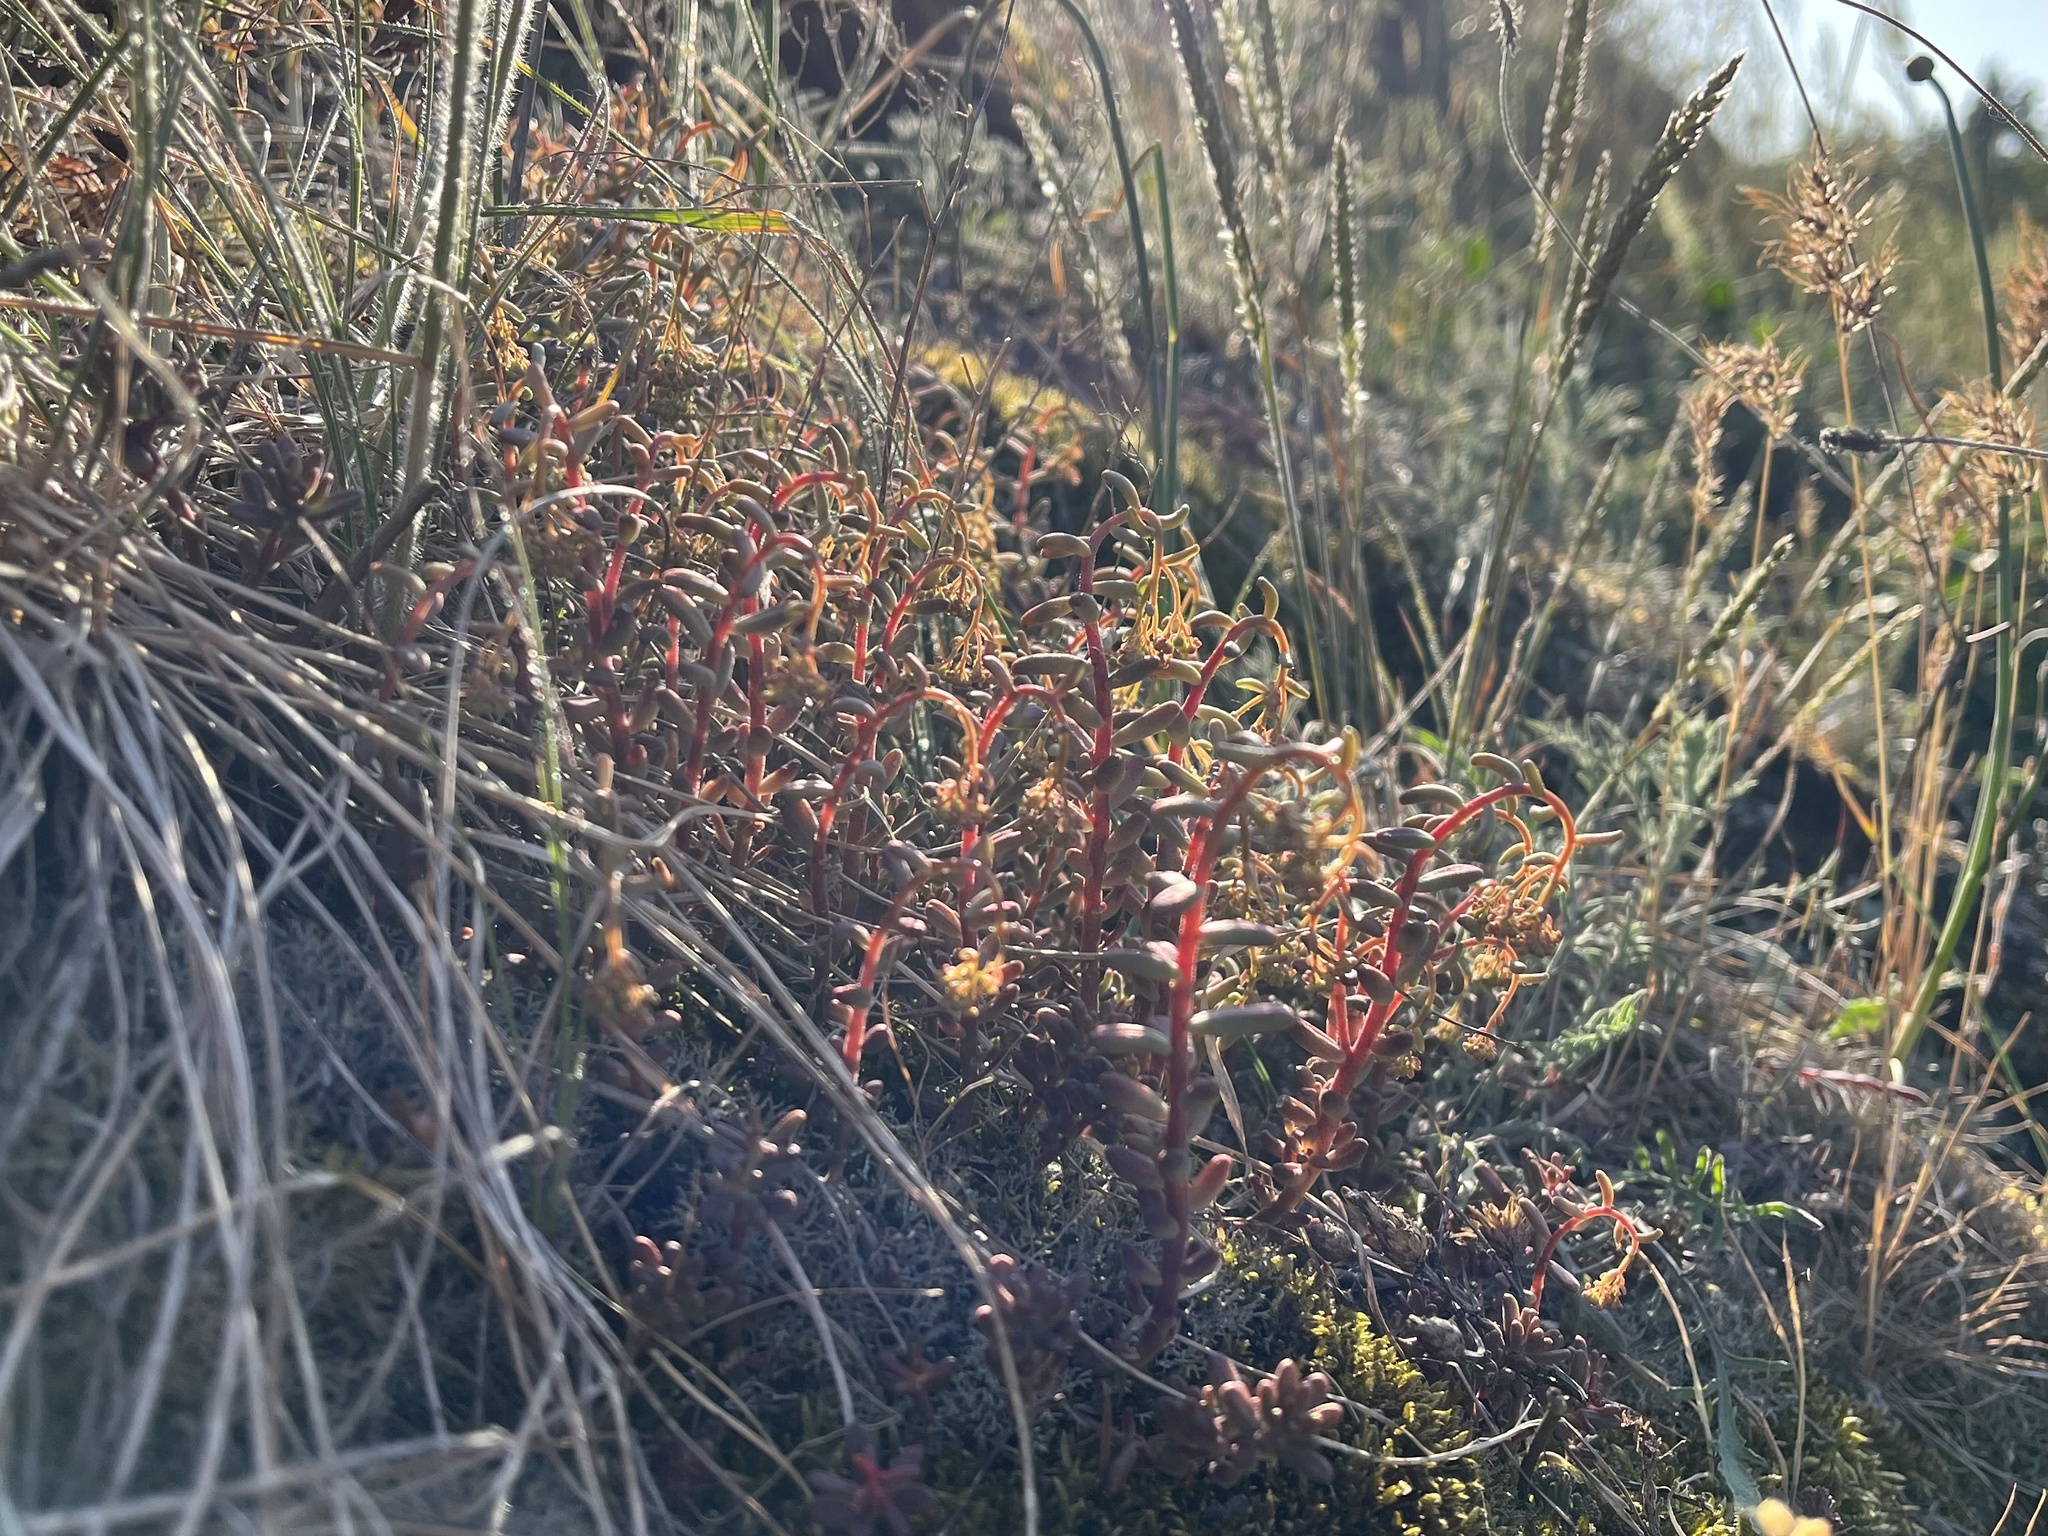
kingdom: Plantae
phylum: Tracheophyta
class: Magnoliopsida
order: Saxifragales
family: Crassulaceae
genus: Sedum
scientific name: Sedum album
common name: White stonecrop
